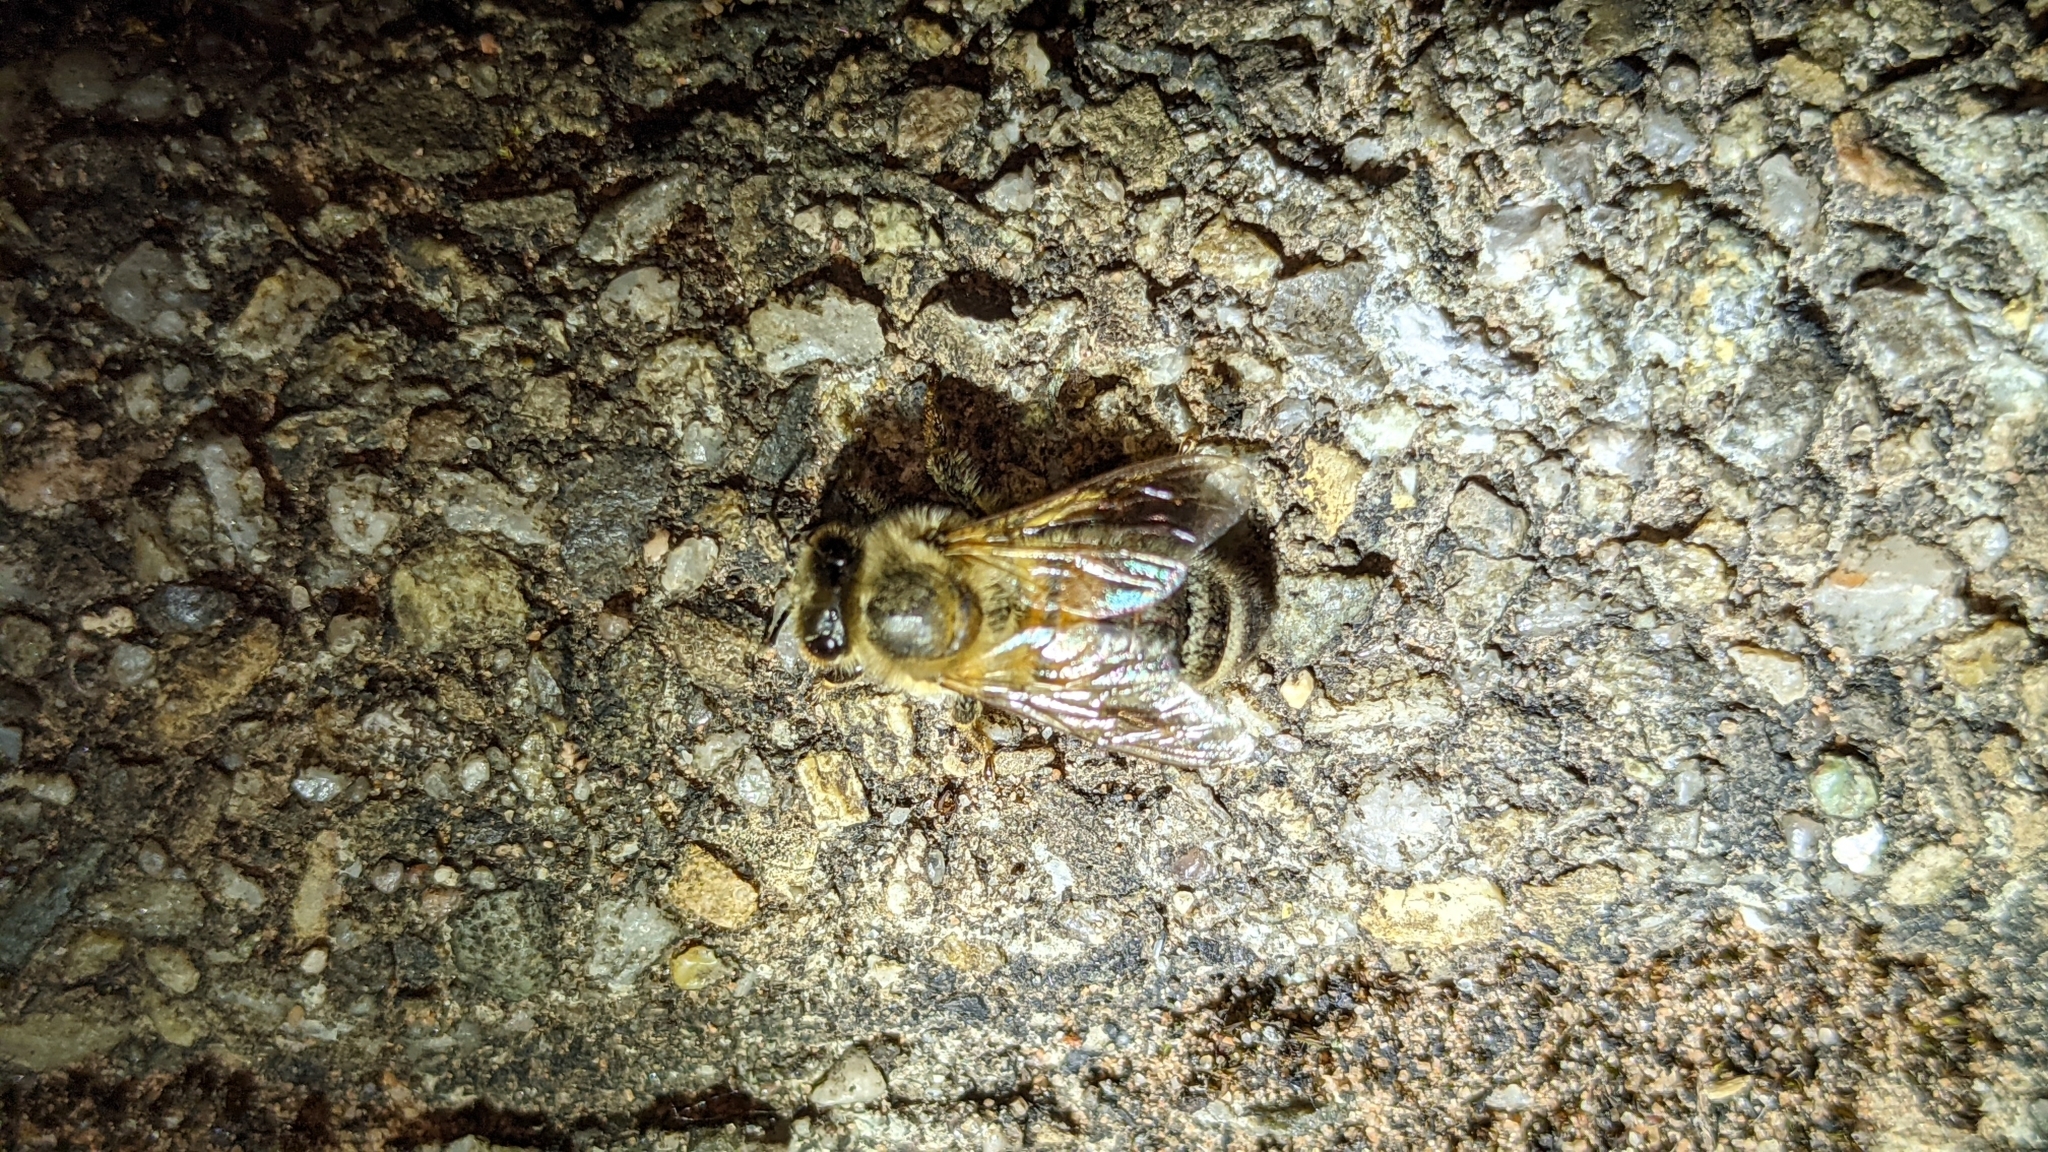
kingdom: Animalia
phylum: Arthropoda
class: Insecta
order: Hymenoptera
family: Apidae
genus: Apis
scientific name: Apis mellifera
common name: Honey bee
